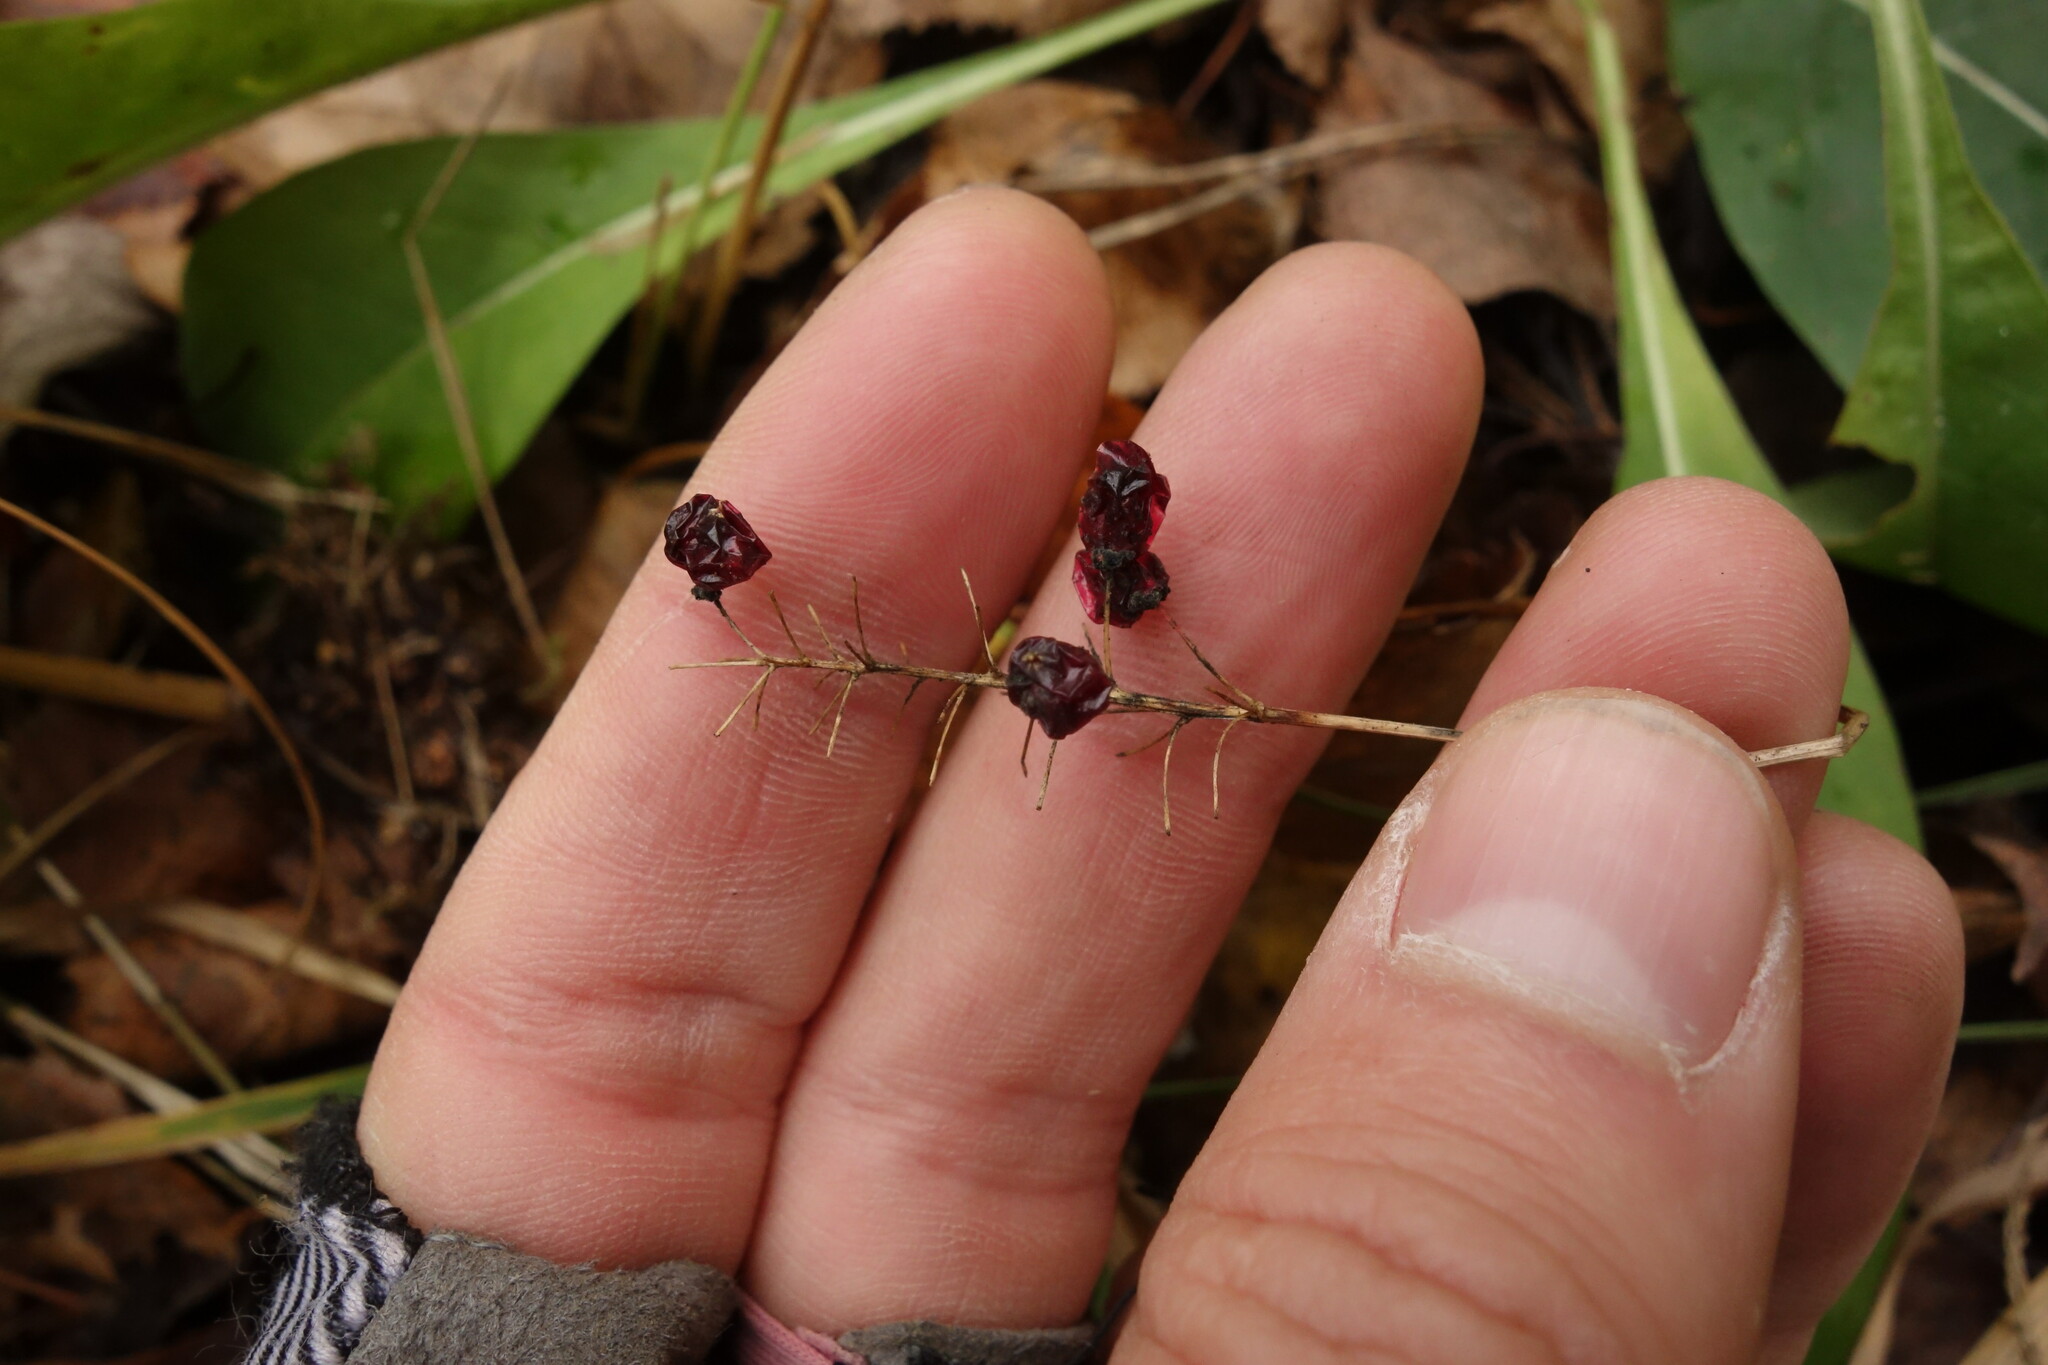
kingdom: Plantae
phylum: Tracheophyta
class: Liliopsida
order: Asparagales
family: Asparagaceae
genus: Maianthemum
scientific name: Maianthemum bifolium
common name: May lily
